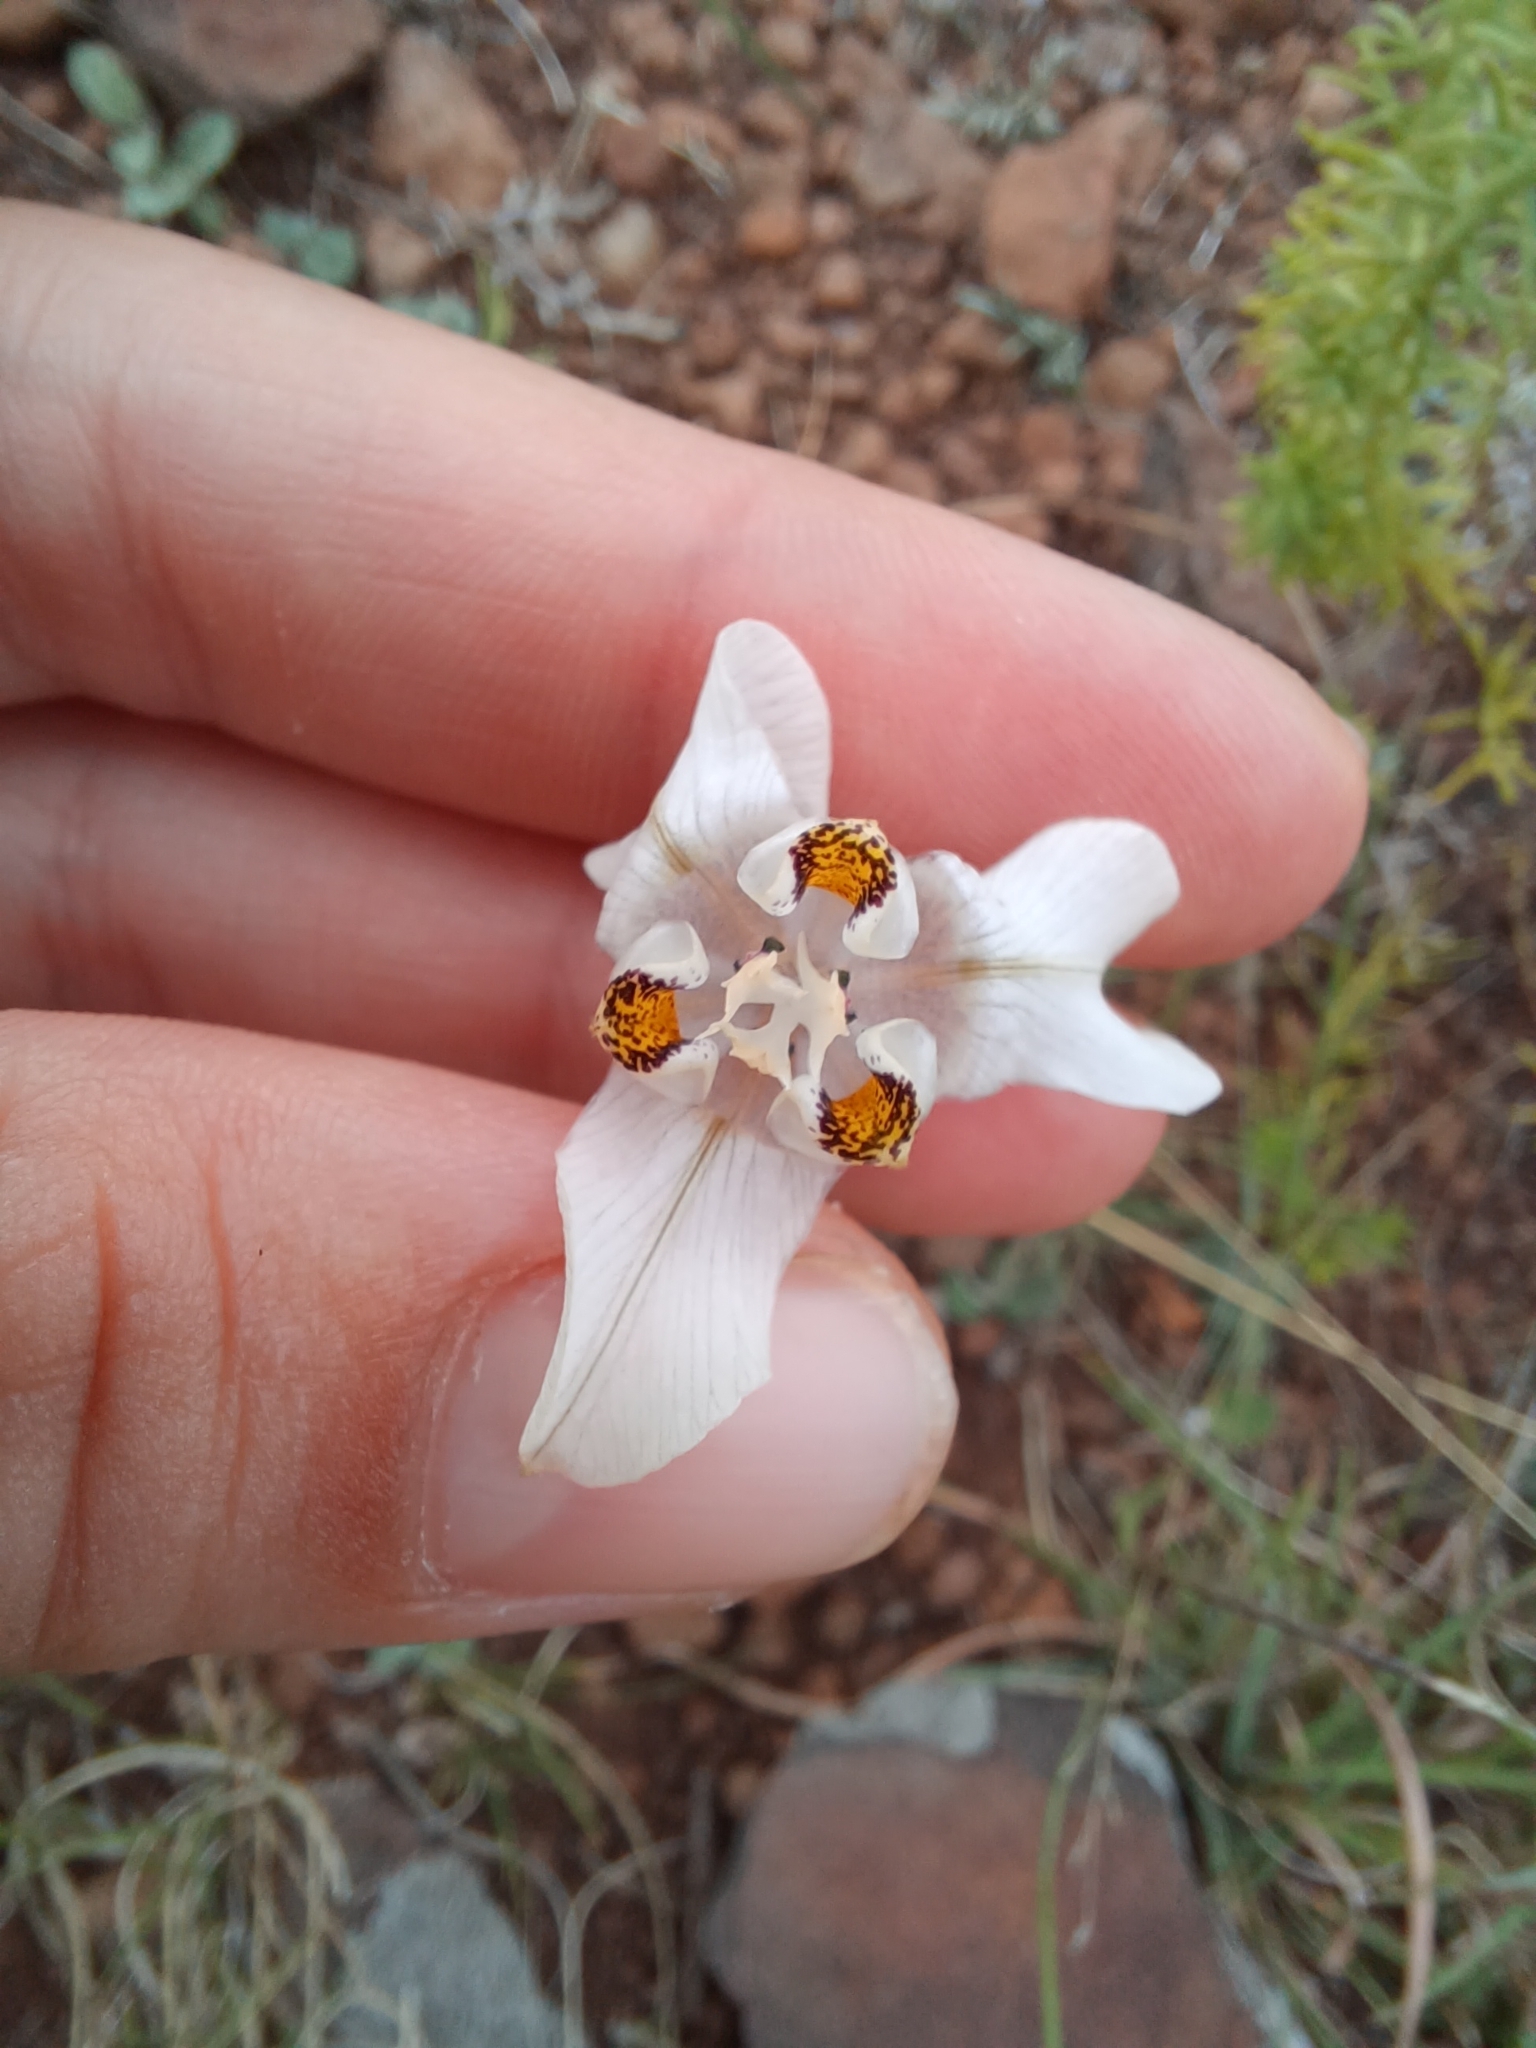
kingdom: Plantae
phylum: Tracheophyta
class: Liliopsida
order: Asparagales
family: Iridaceae
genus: Cypella
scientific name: Cypella osteniana
